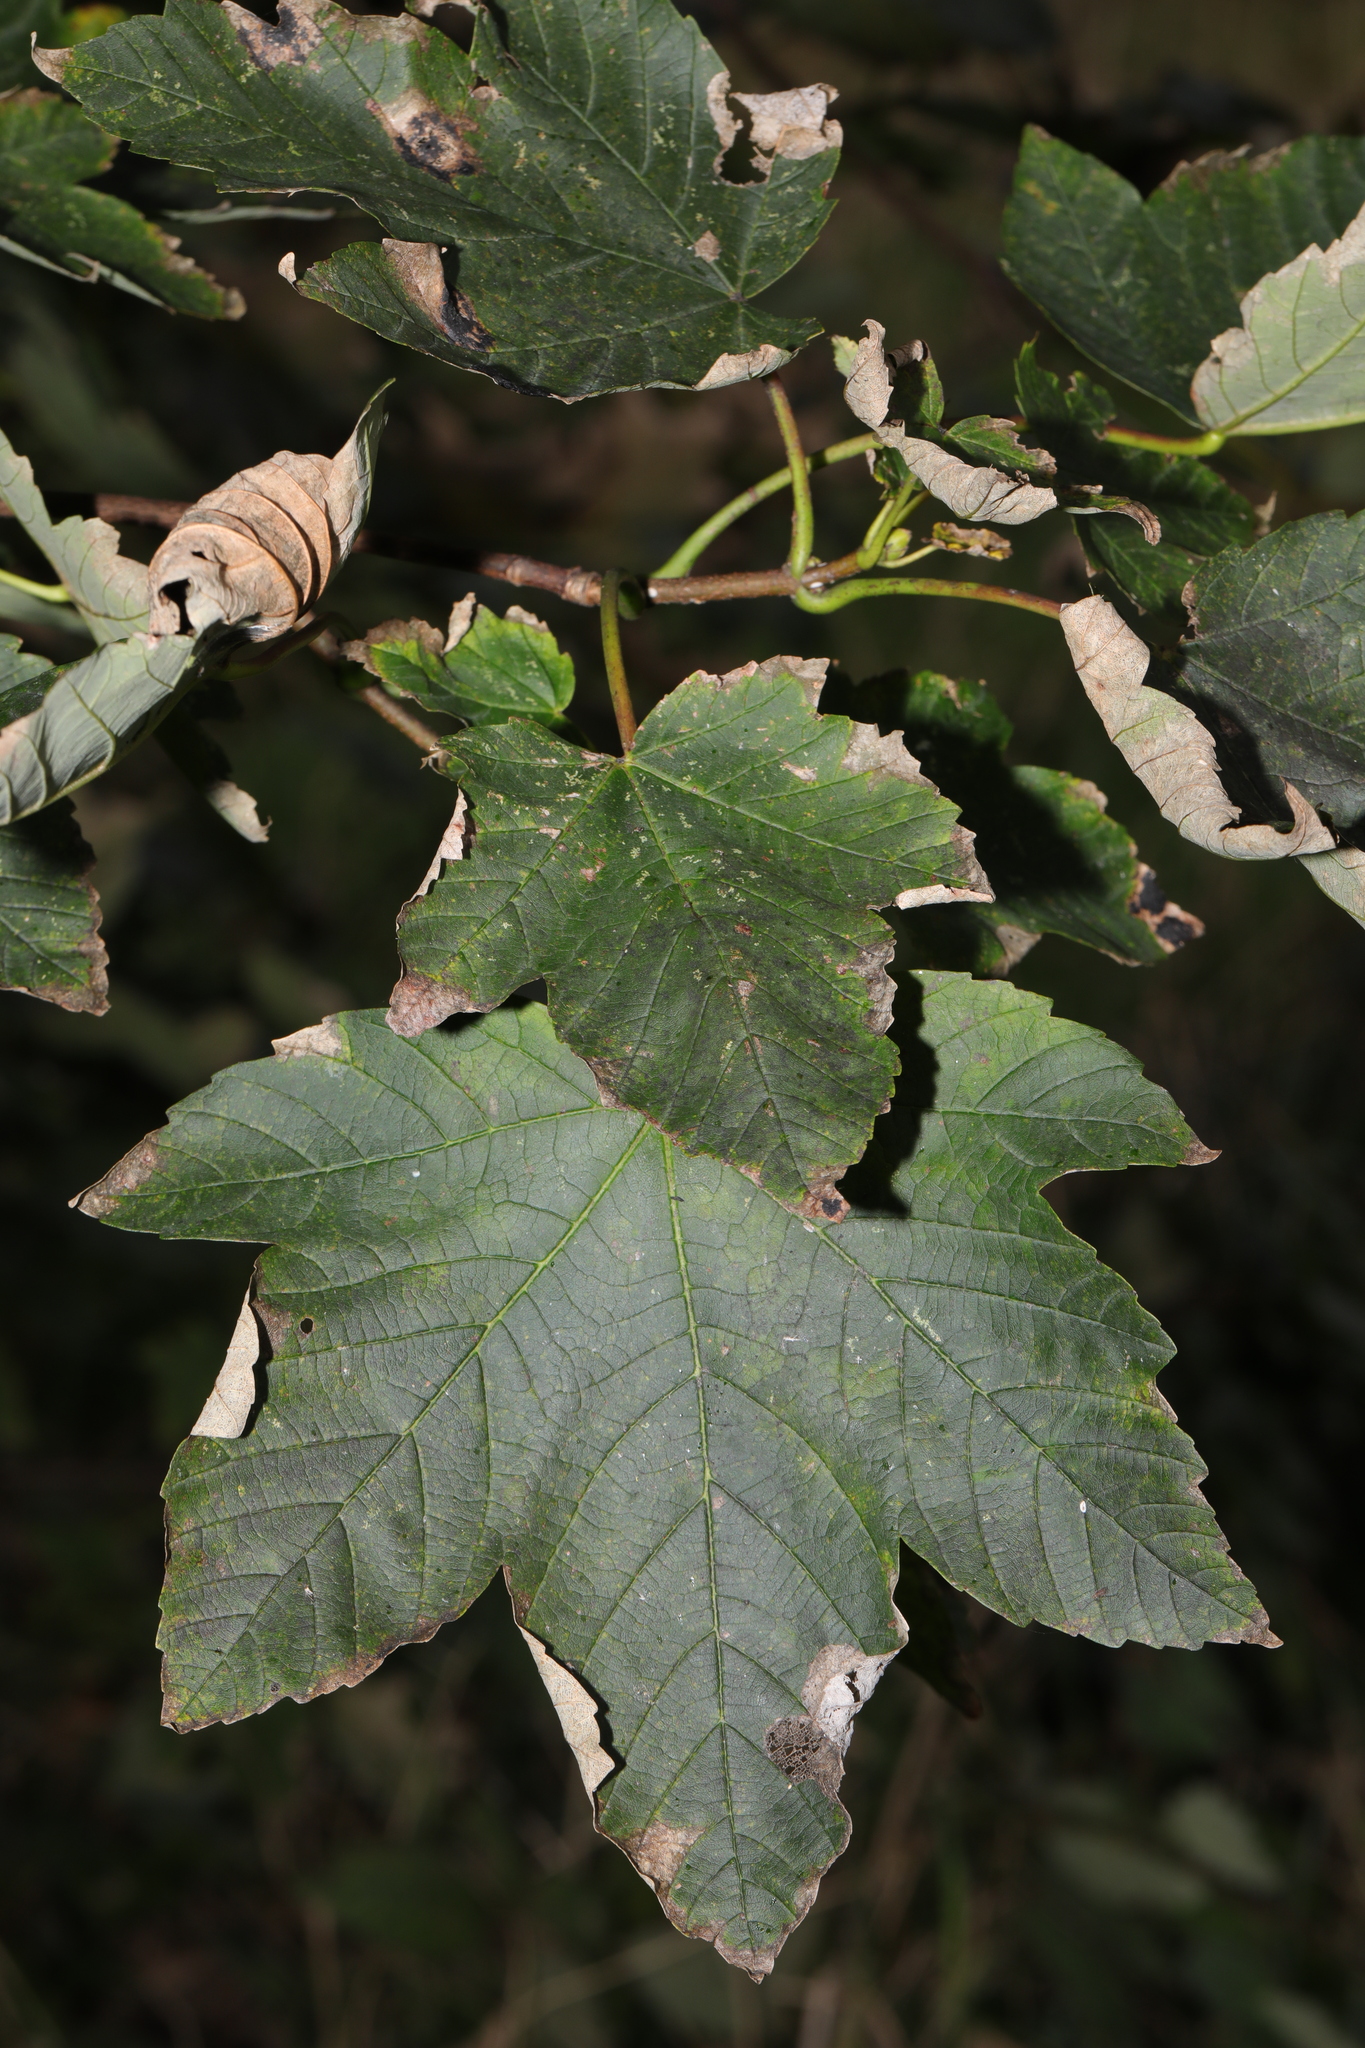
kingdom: Plantae
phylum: Tracheophyta
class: Magnoliopsida
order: Sapindales
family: Sapindaceae
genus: Acer
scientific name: Acer pseudoplatanus
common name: Sycamore
